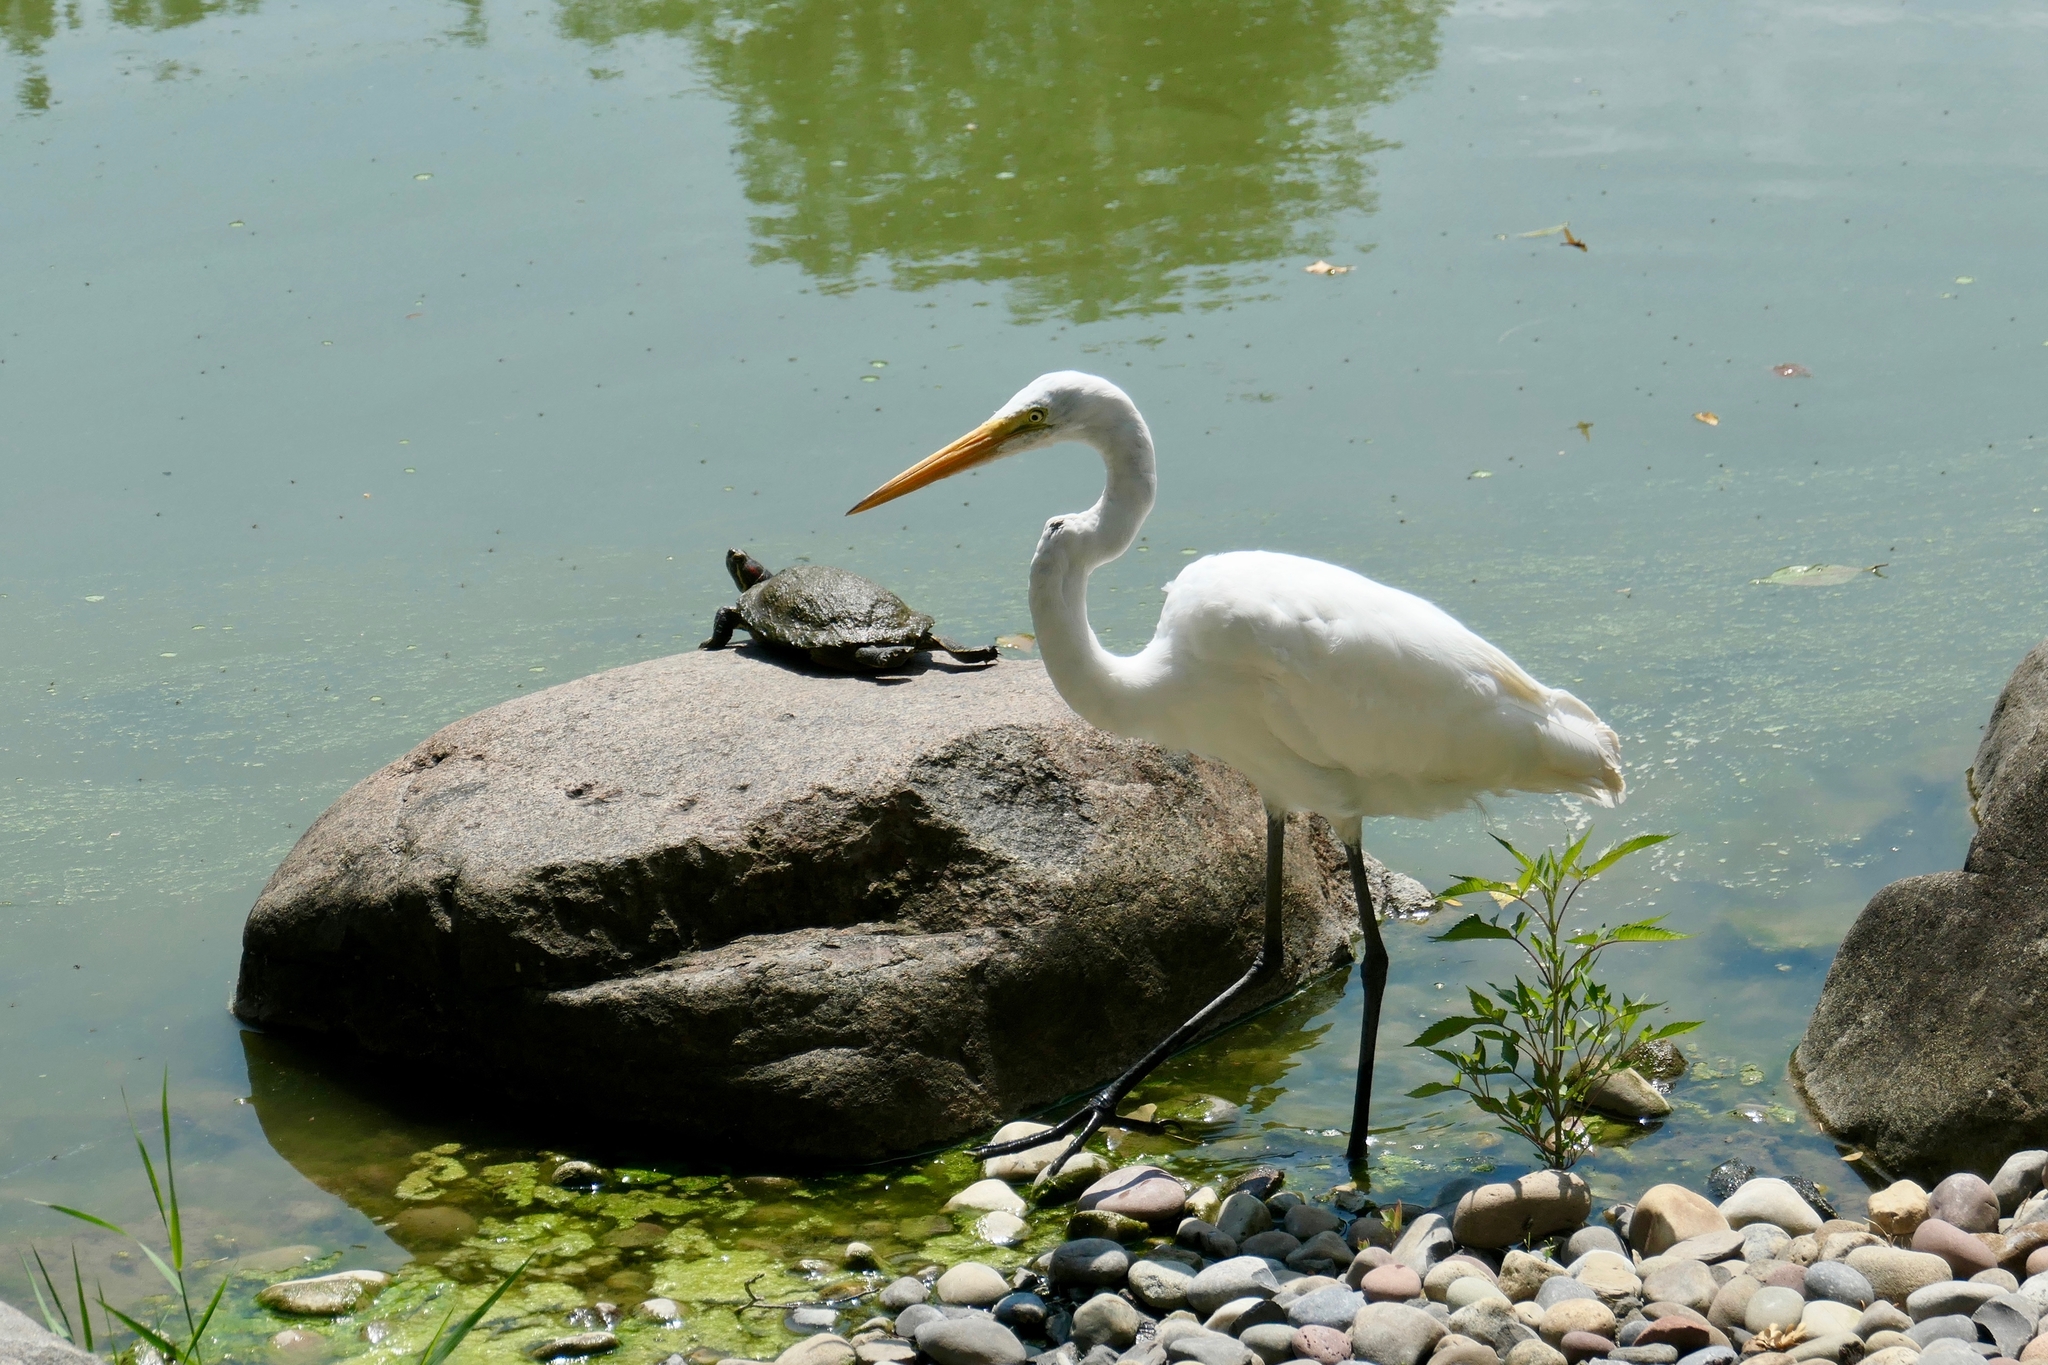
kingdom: Animalia
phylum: Chordata
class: Aves
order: Pelecaniformes
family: Ardeidae
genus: Ardea
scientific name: Ardea alba
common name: Great egret
